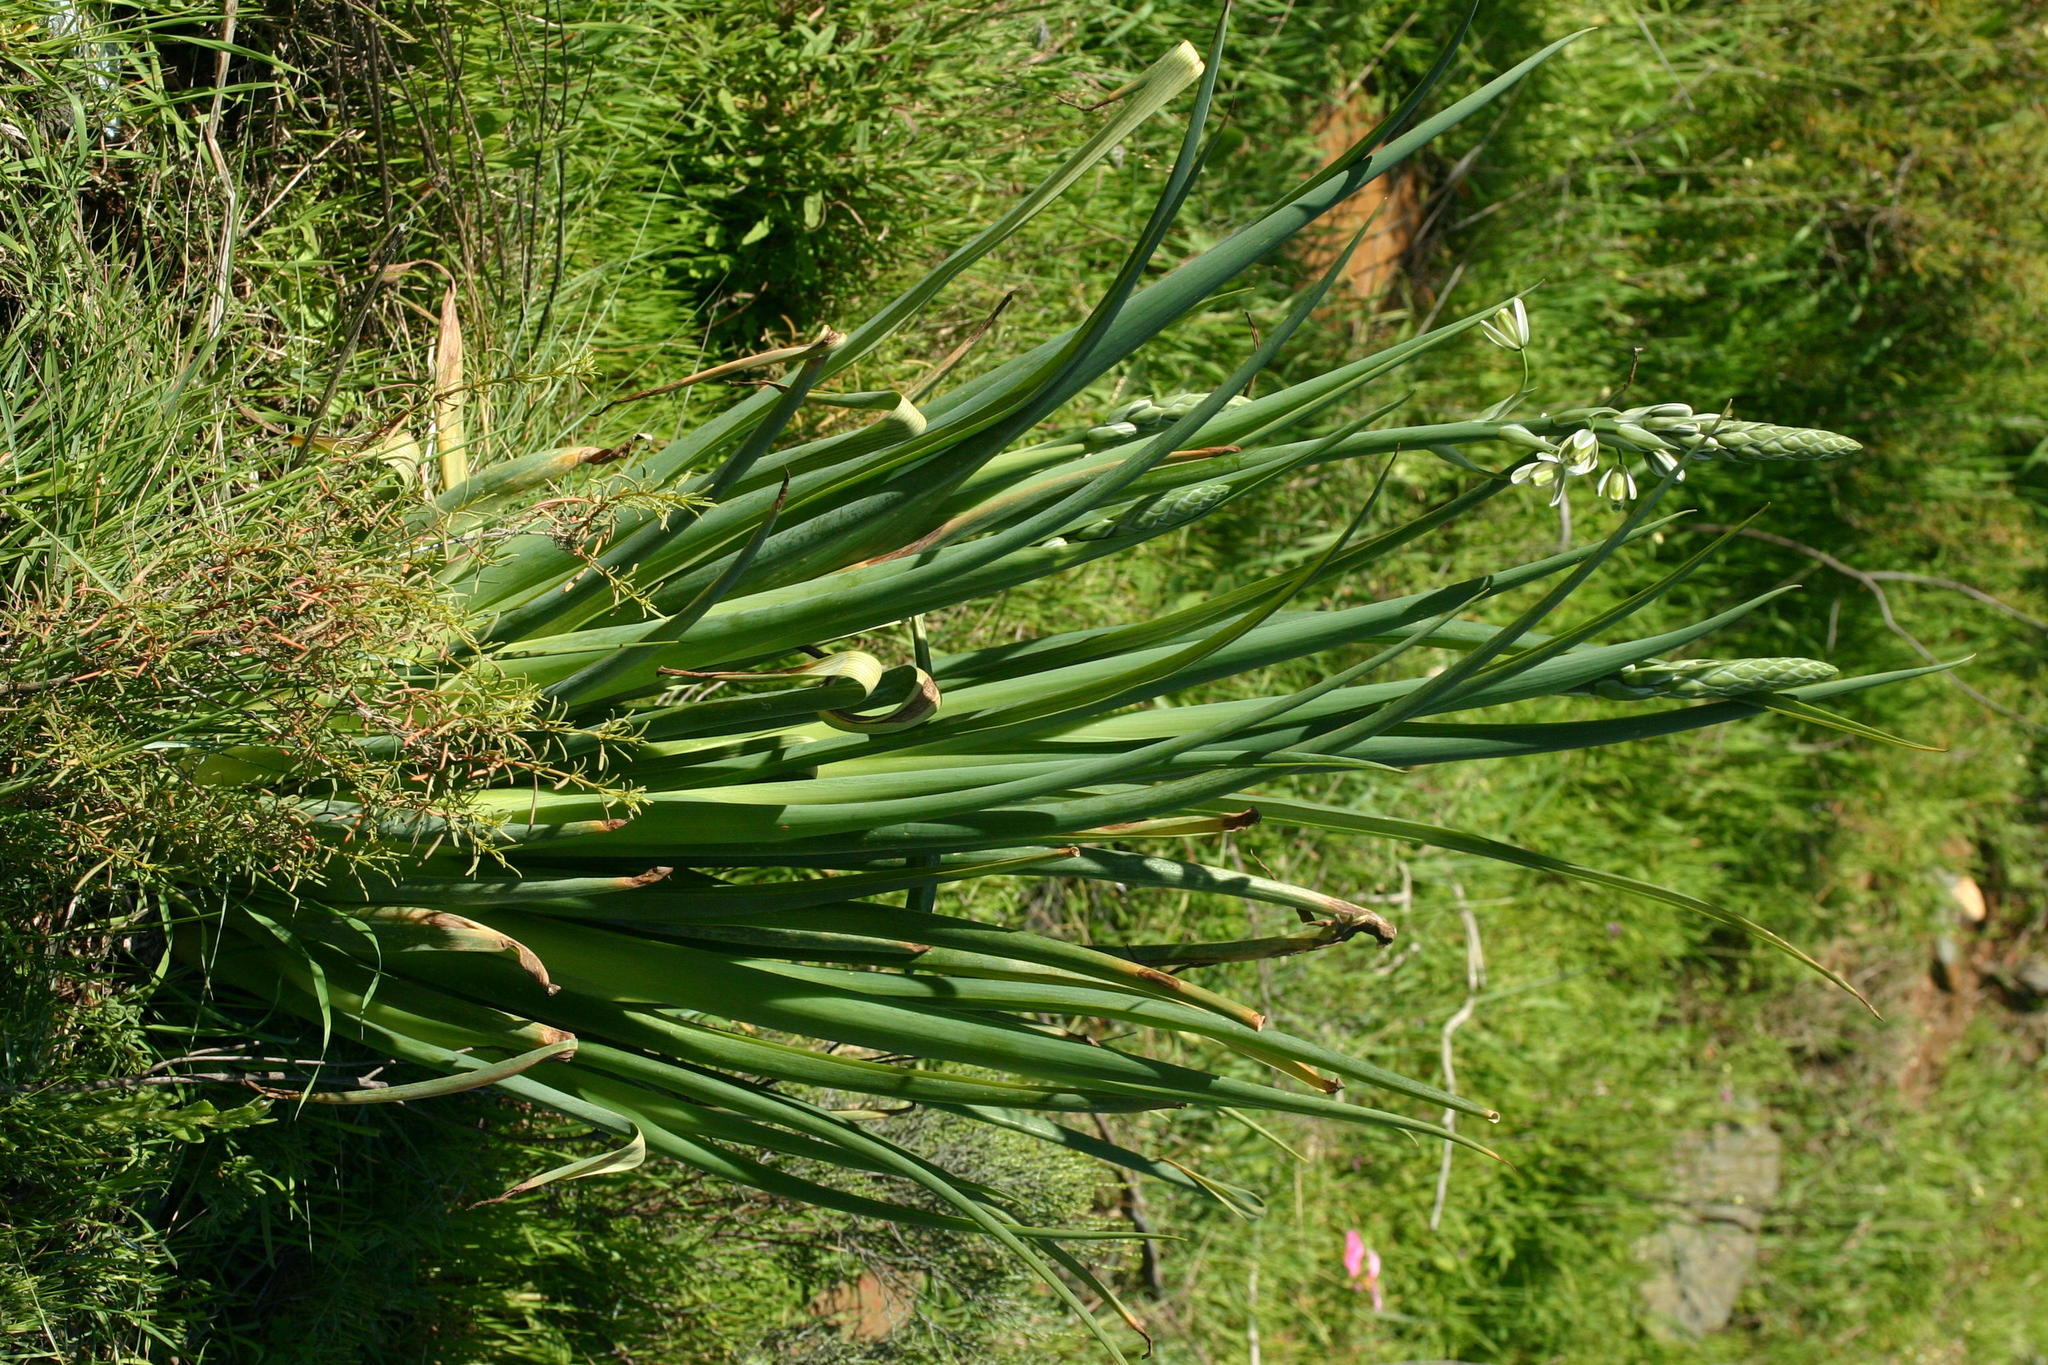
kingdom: Plantae
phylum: Tracheophyta
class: Liliopsida
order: Asparagales
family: Asparagaceae
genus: Albuca
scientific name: Albuca canadensis
